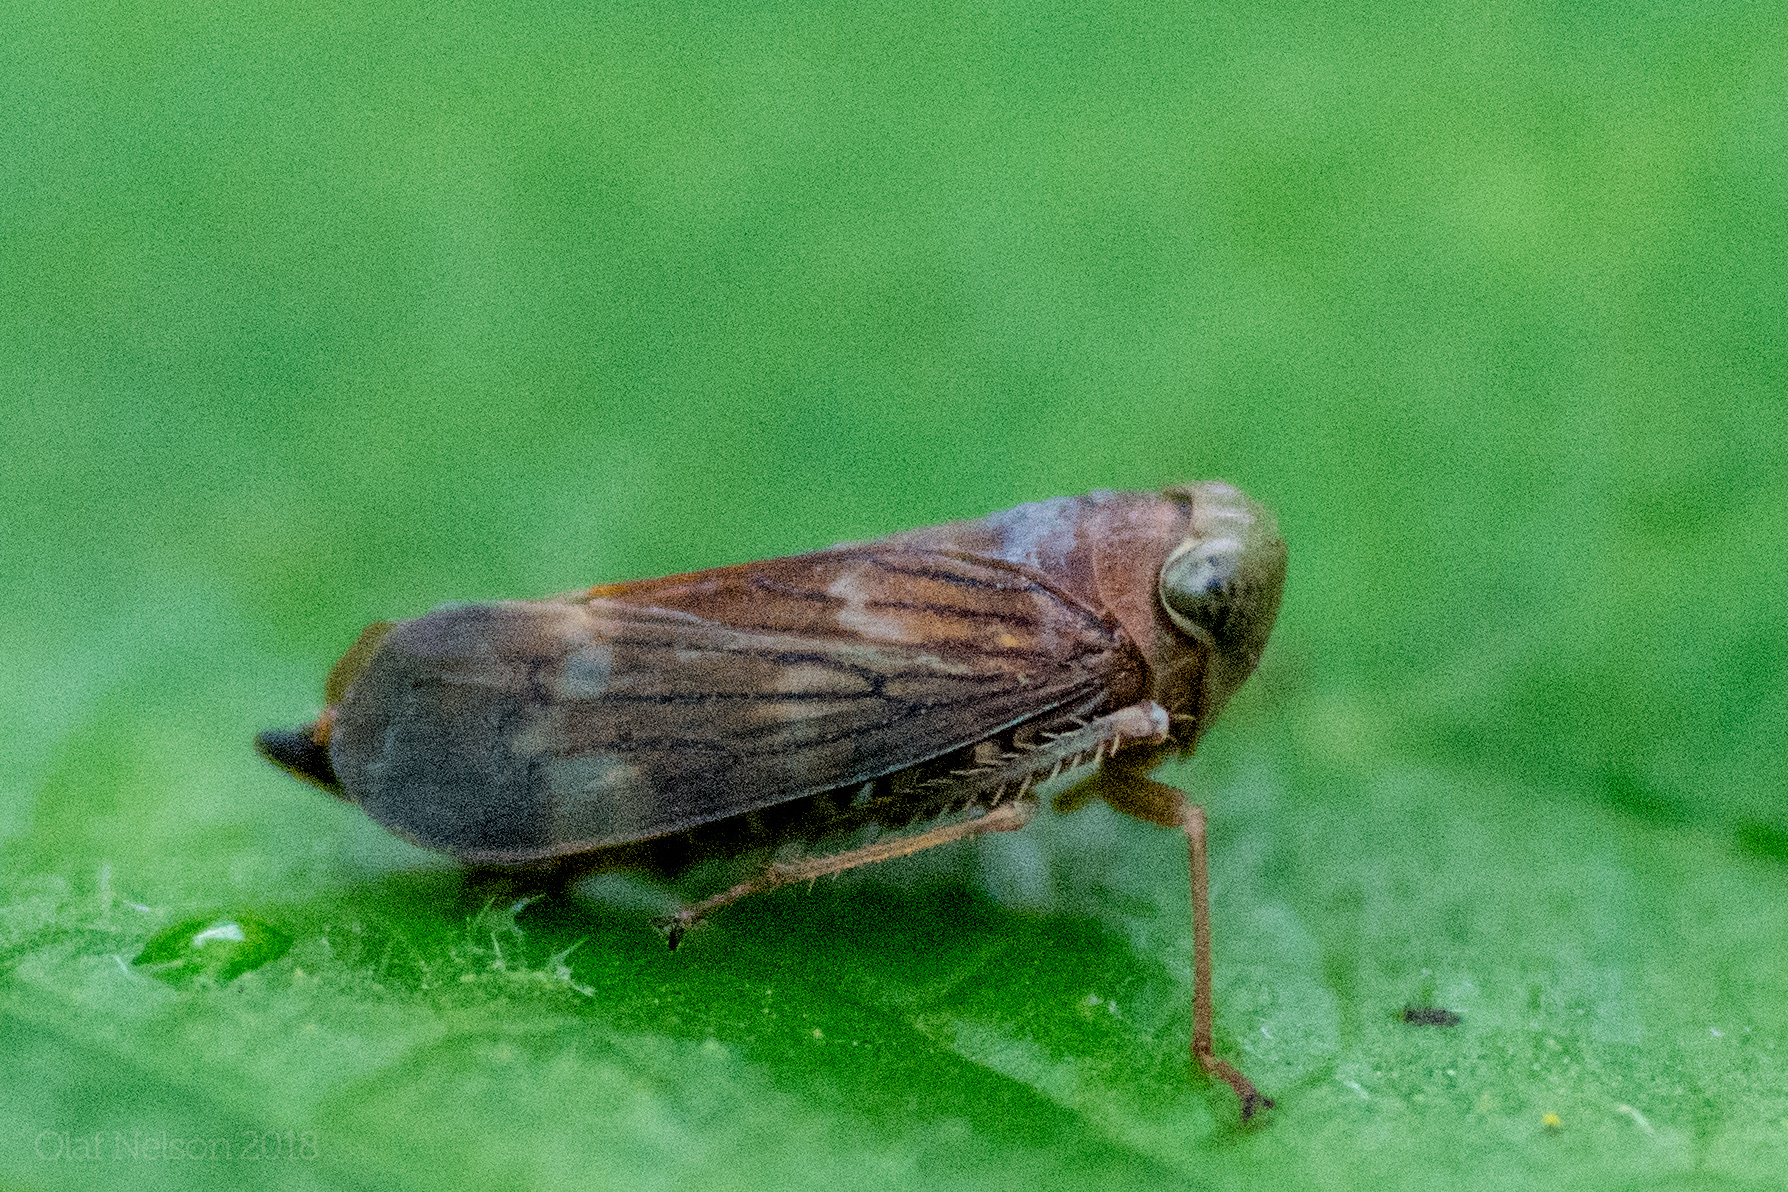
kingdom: Animalia
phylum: Arthropoda
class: Insecta
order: Hemiptera
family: Cicadellidae
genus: Jikradia
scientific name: Jikradia olitoria
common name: Coppery leafhopper
